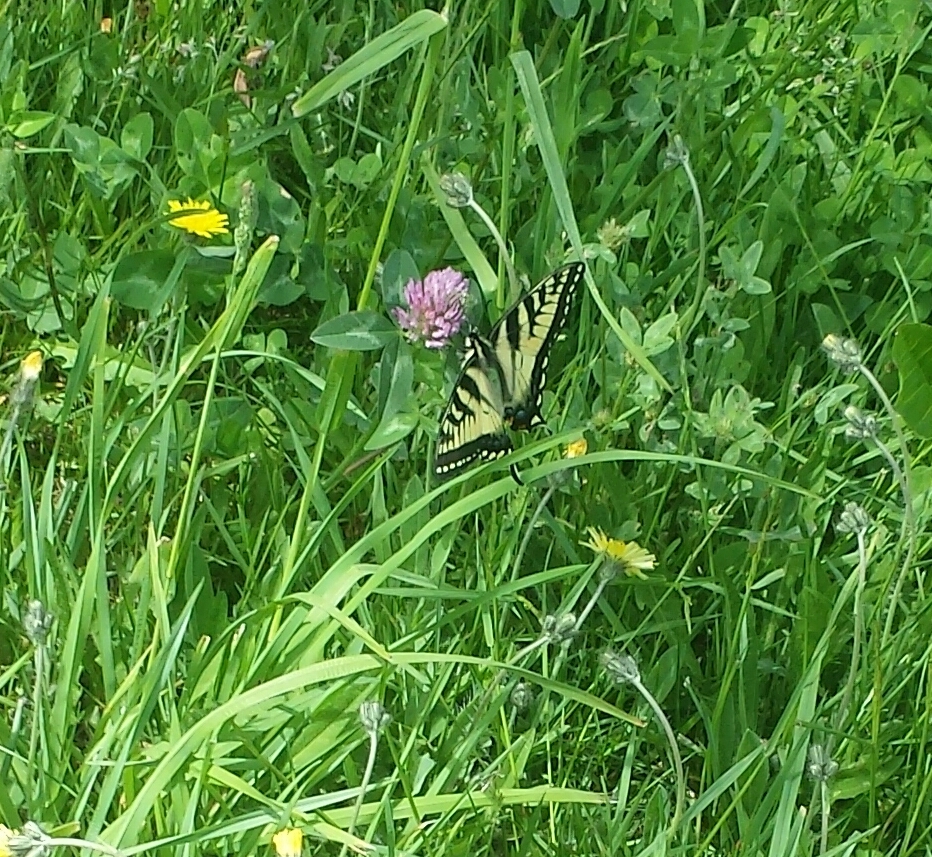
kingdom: Animalia
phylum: Arthropoda
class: Insecta
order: Lepidoptera
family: Papilionidae
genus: Papilio
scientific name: Papilio canadensis
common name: Canadian tiger swallowtail
